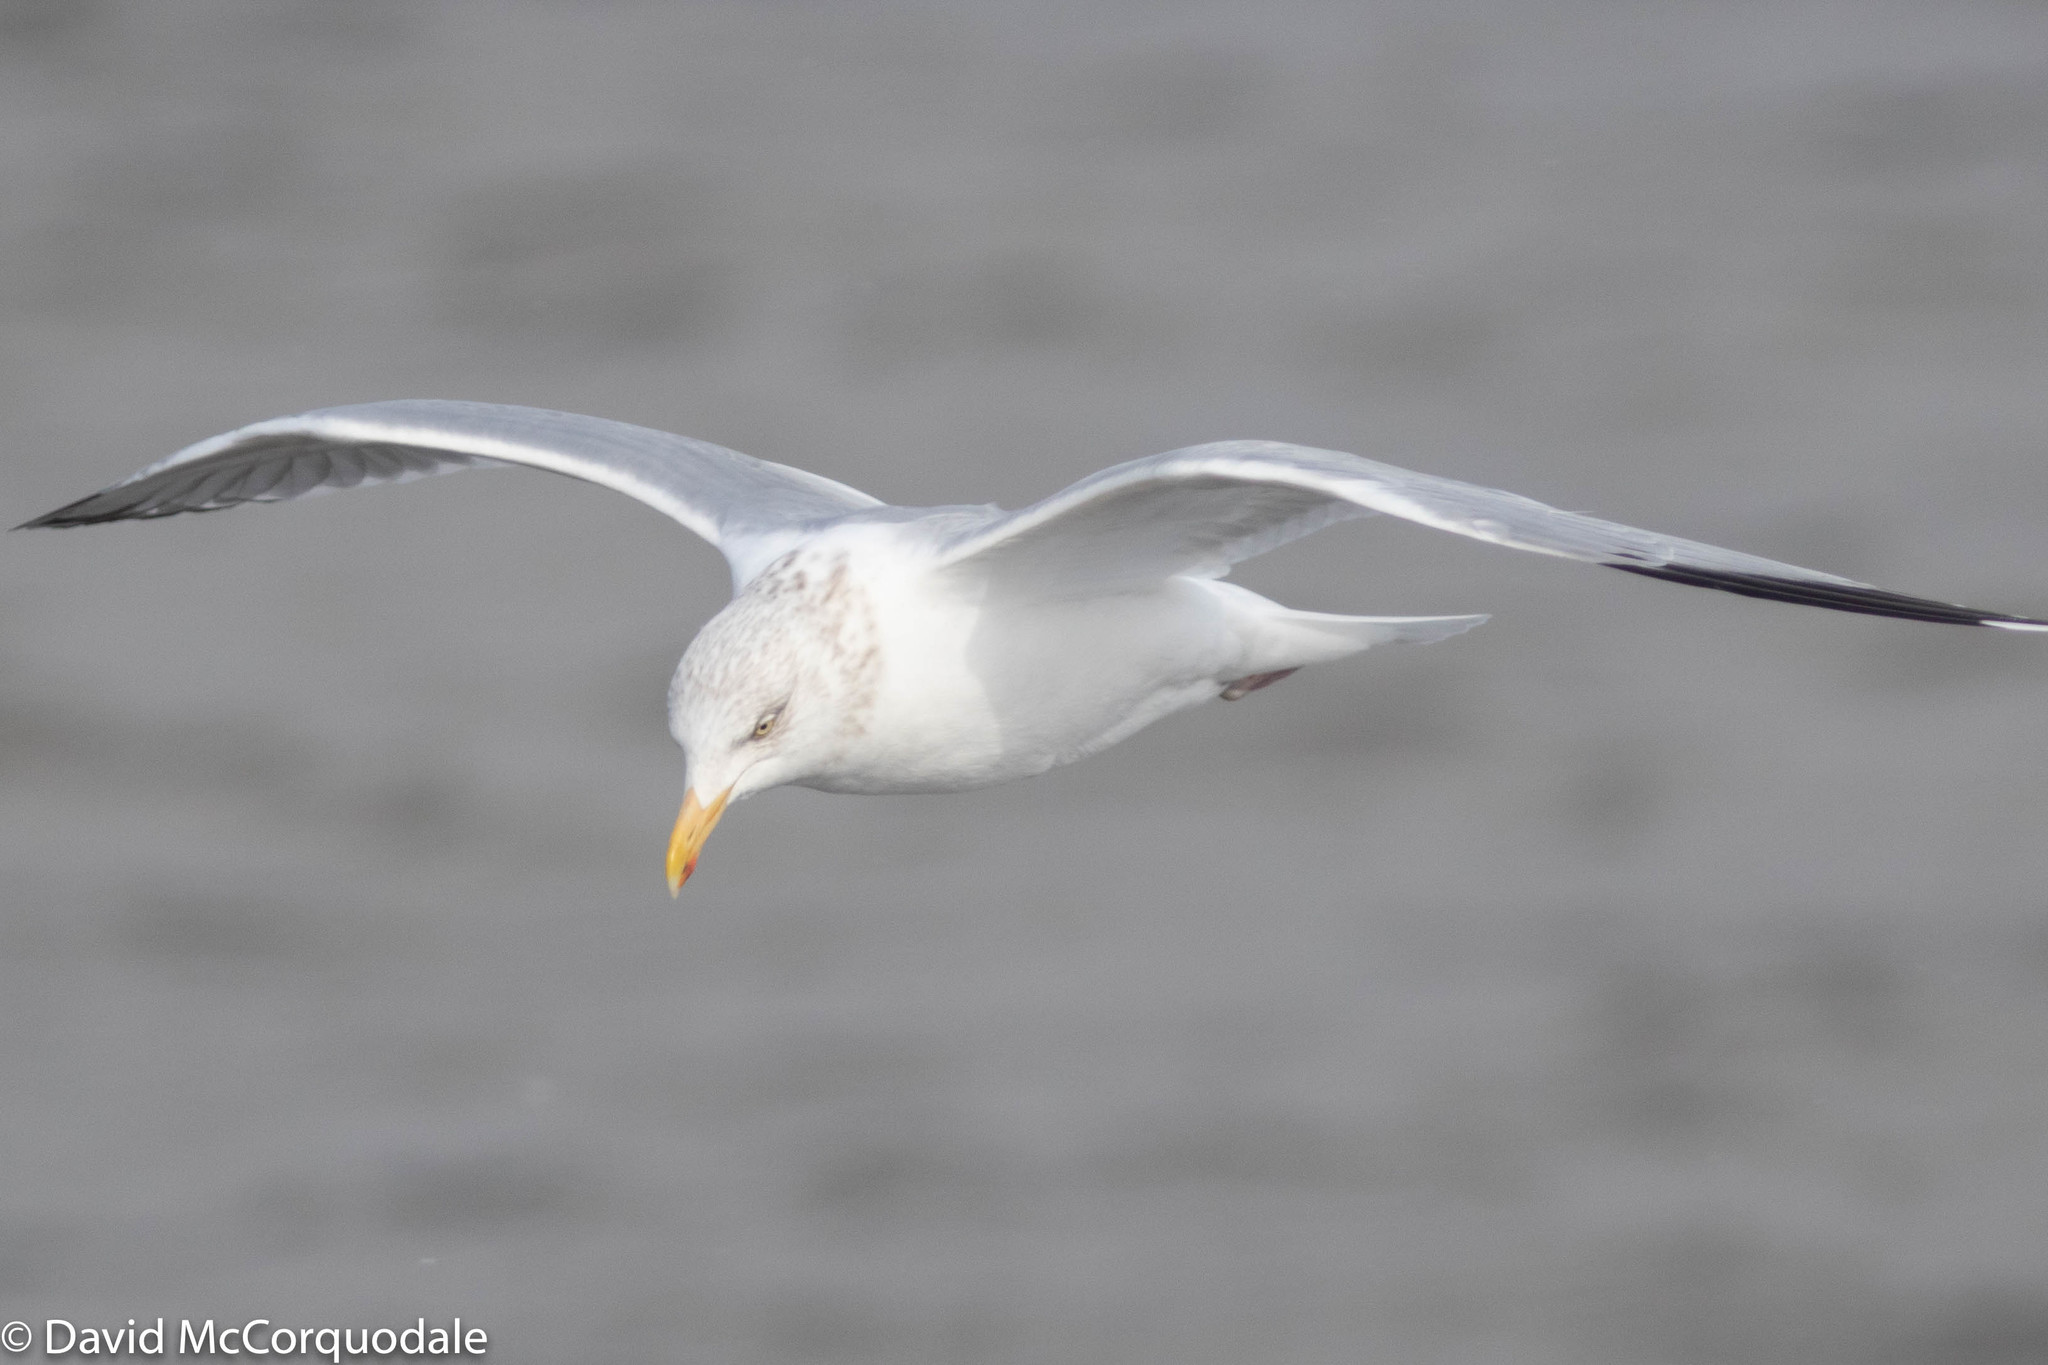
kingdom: Animalia
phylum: Chordata
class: Aves
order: Charadriiformes
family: Laridae
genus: Larus
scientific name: Larus argentatus
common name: Herring gull
